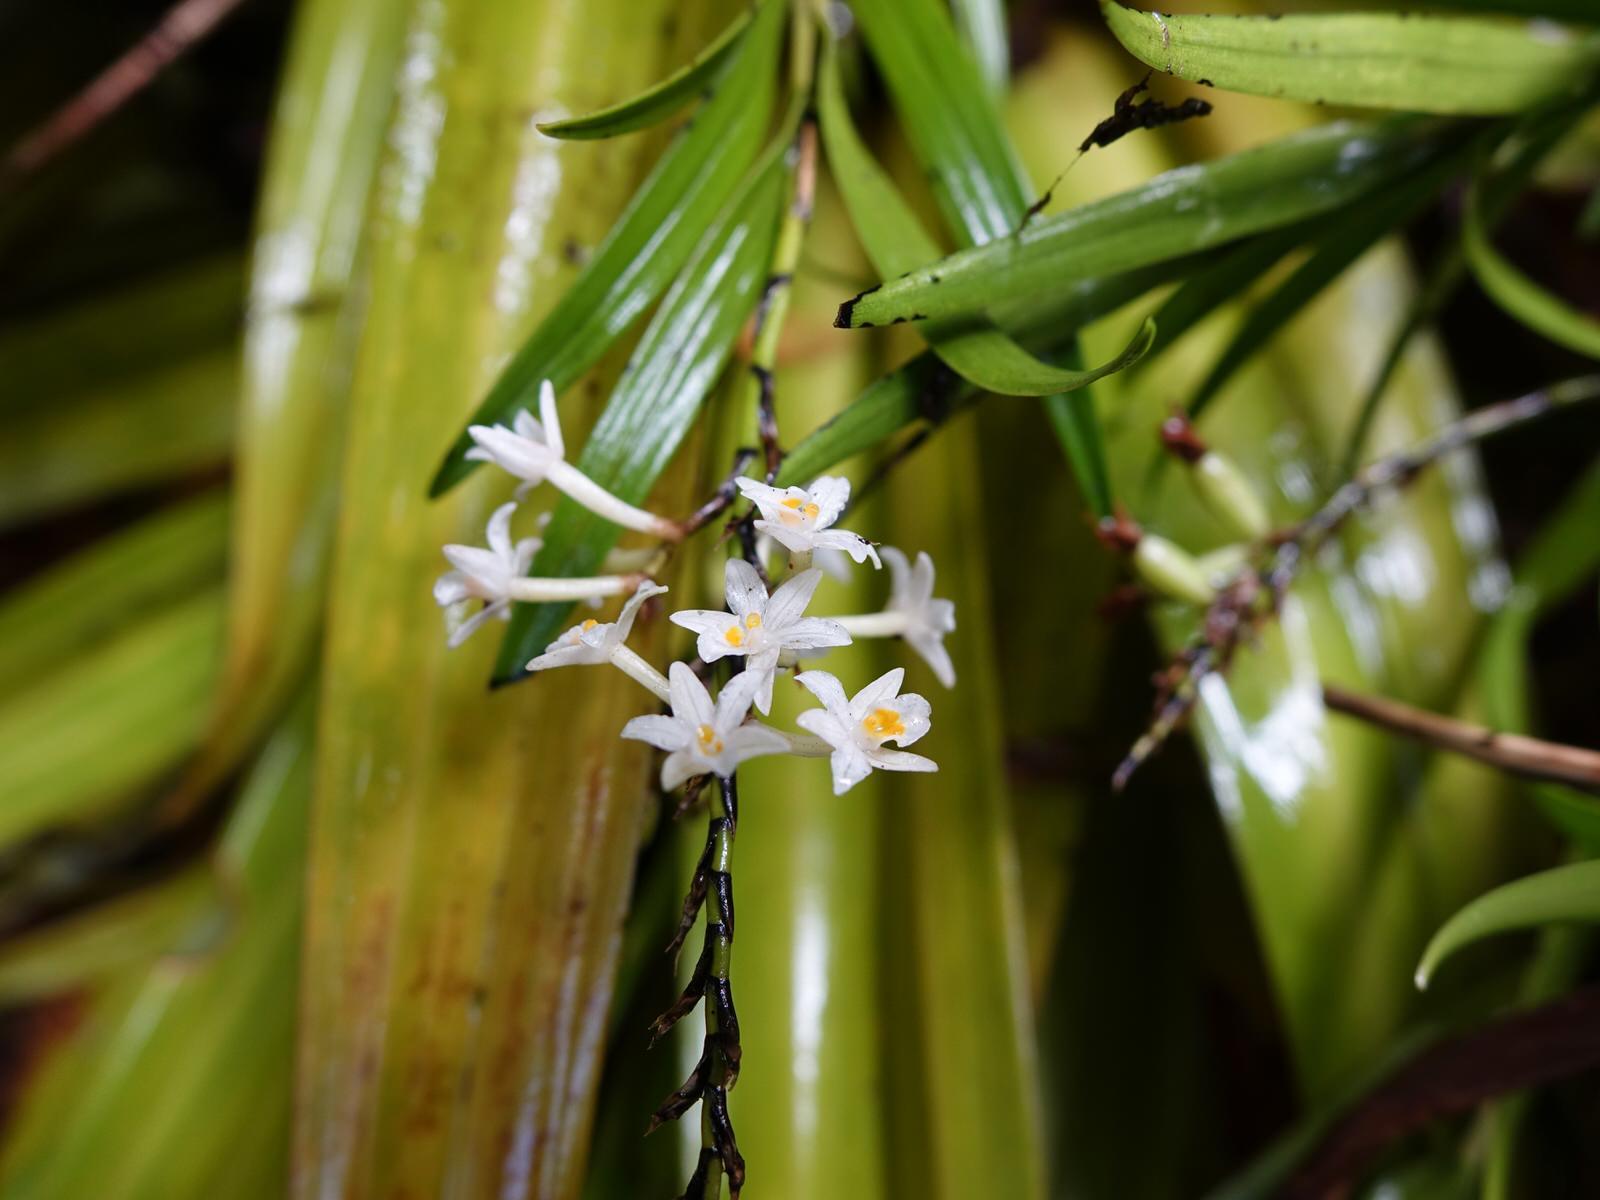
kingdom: Plantae
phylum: Tracheophyta
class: Liliopsida
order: Asparagales
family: Orchidaceae
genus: Earina
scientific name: Earina autumnalis
